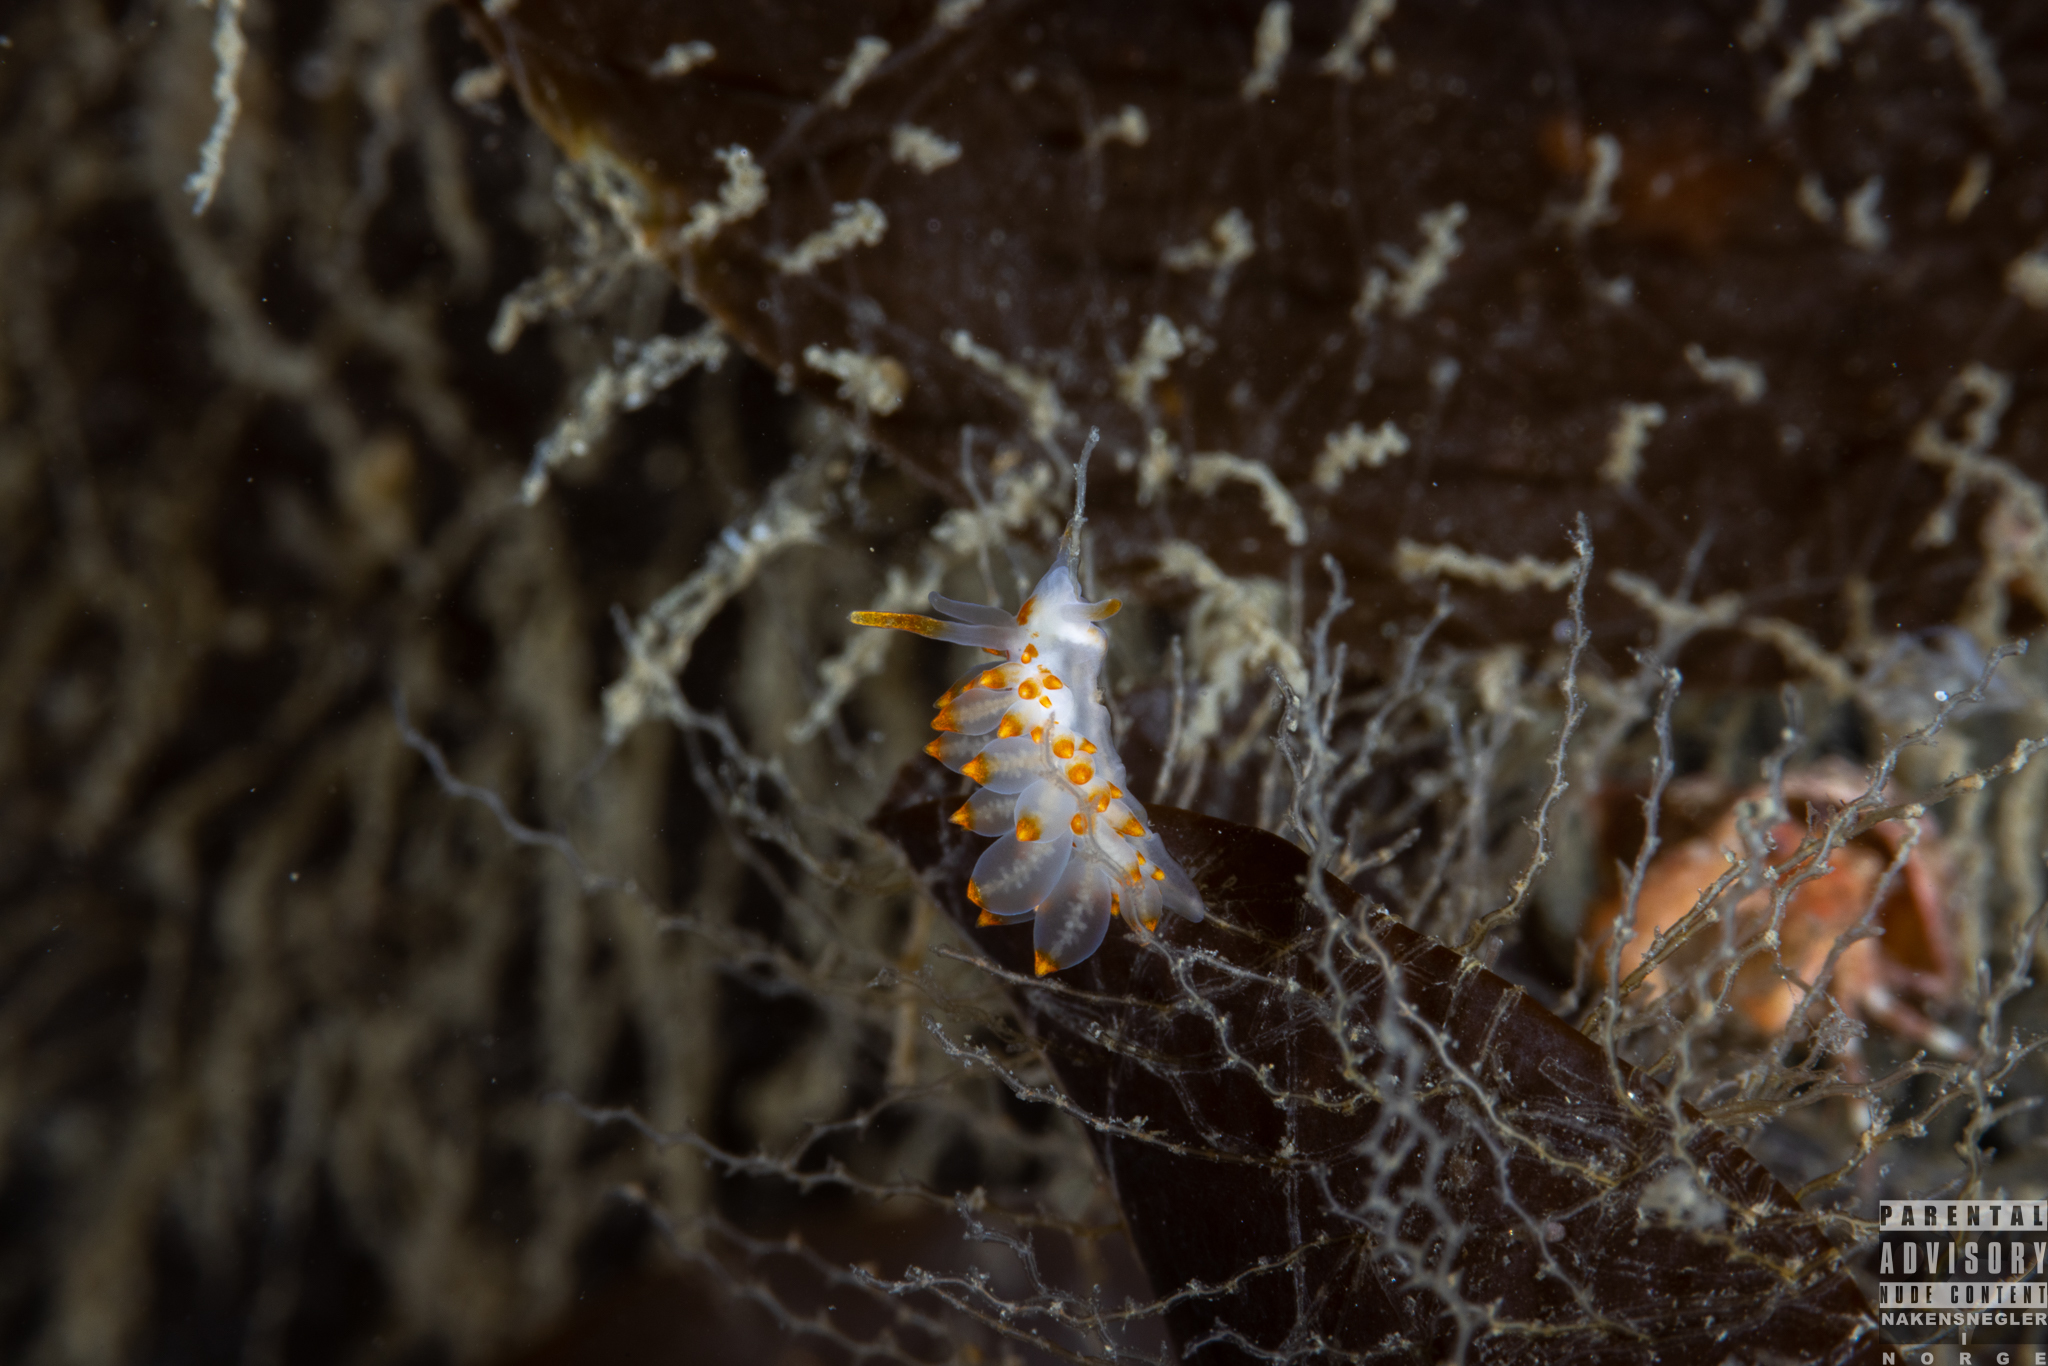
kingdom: Animalia
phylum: Mollusca
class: Gastropoda
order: Nudibranchia
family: Eubranchidae
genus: Amphorina
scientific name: Amphorina farrani
